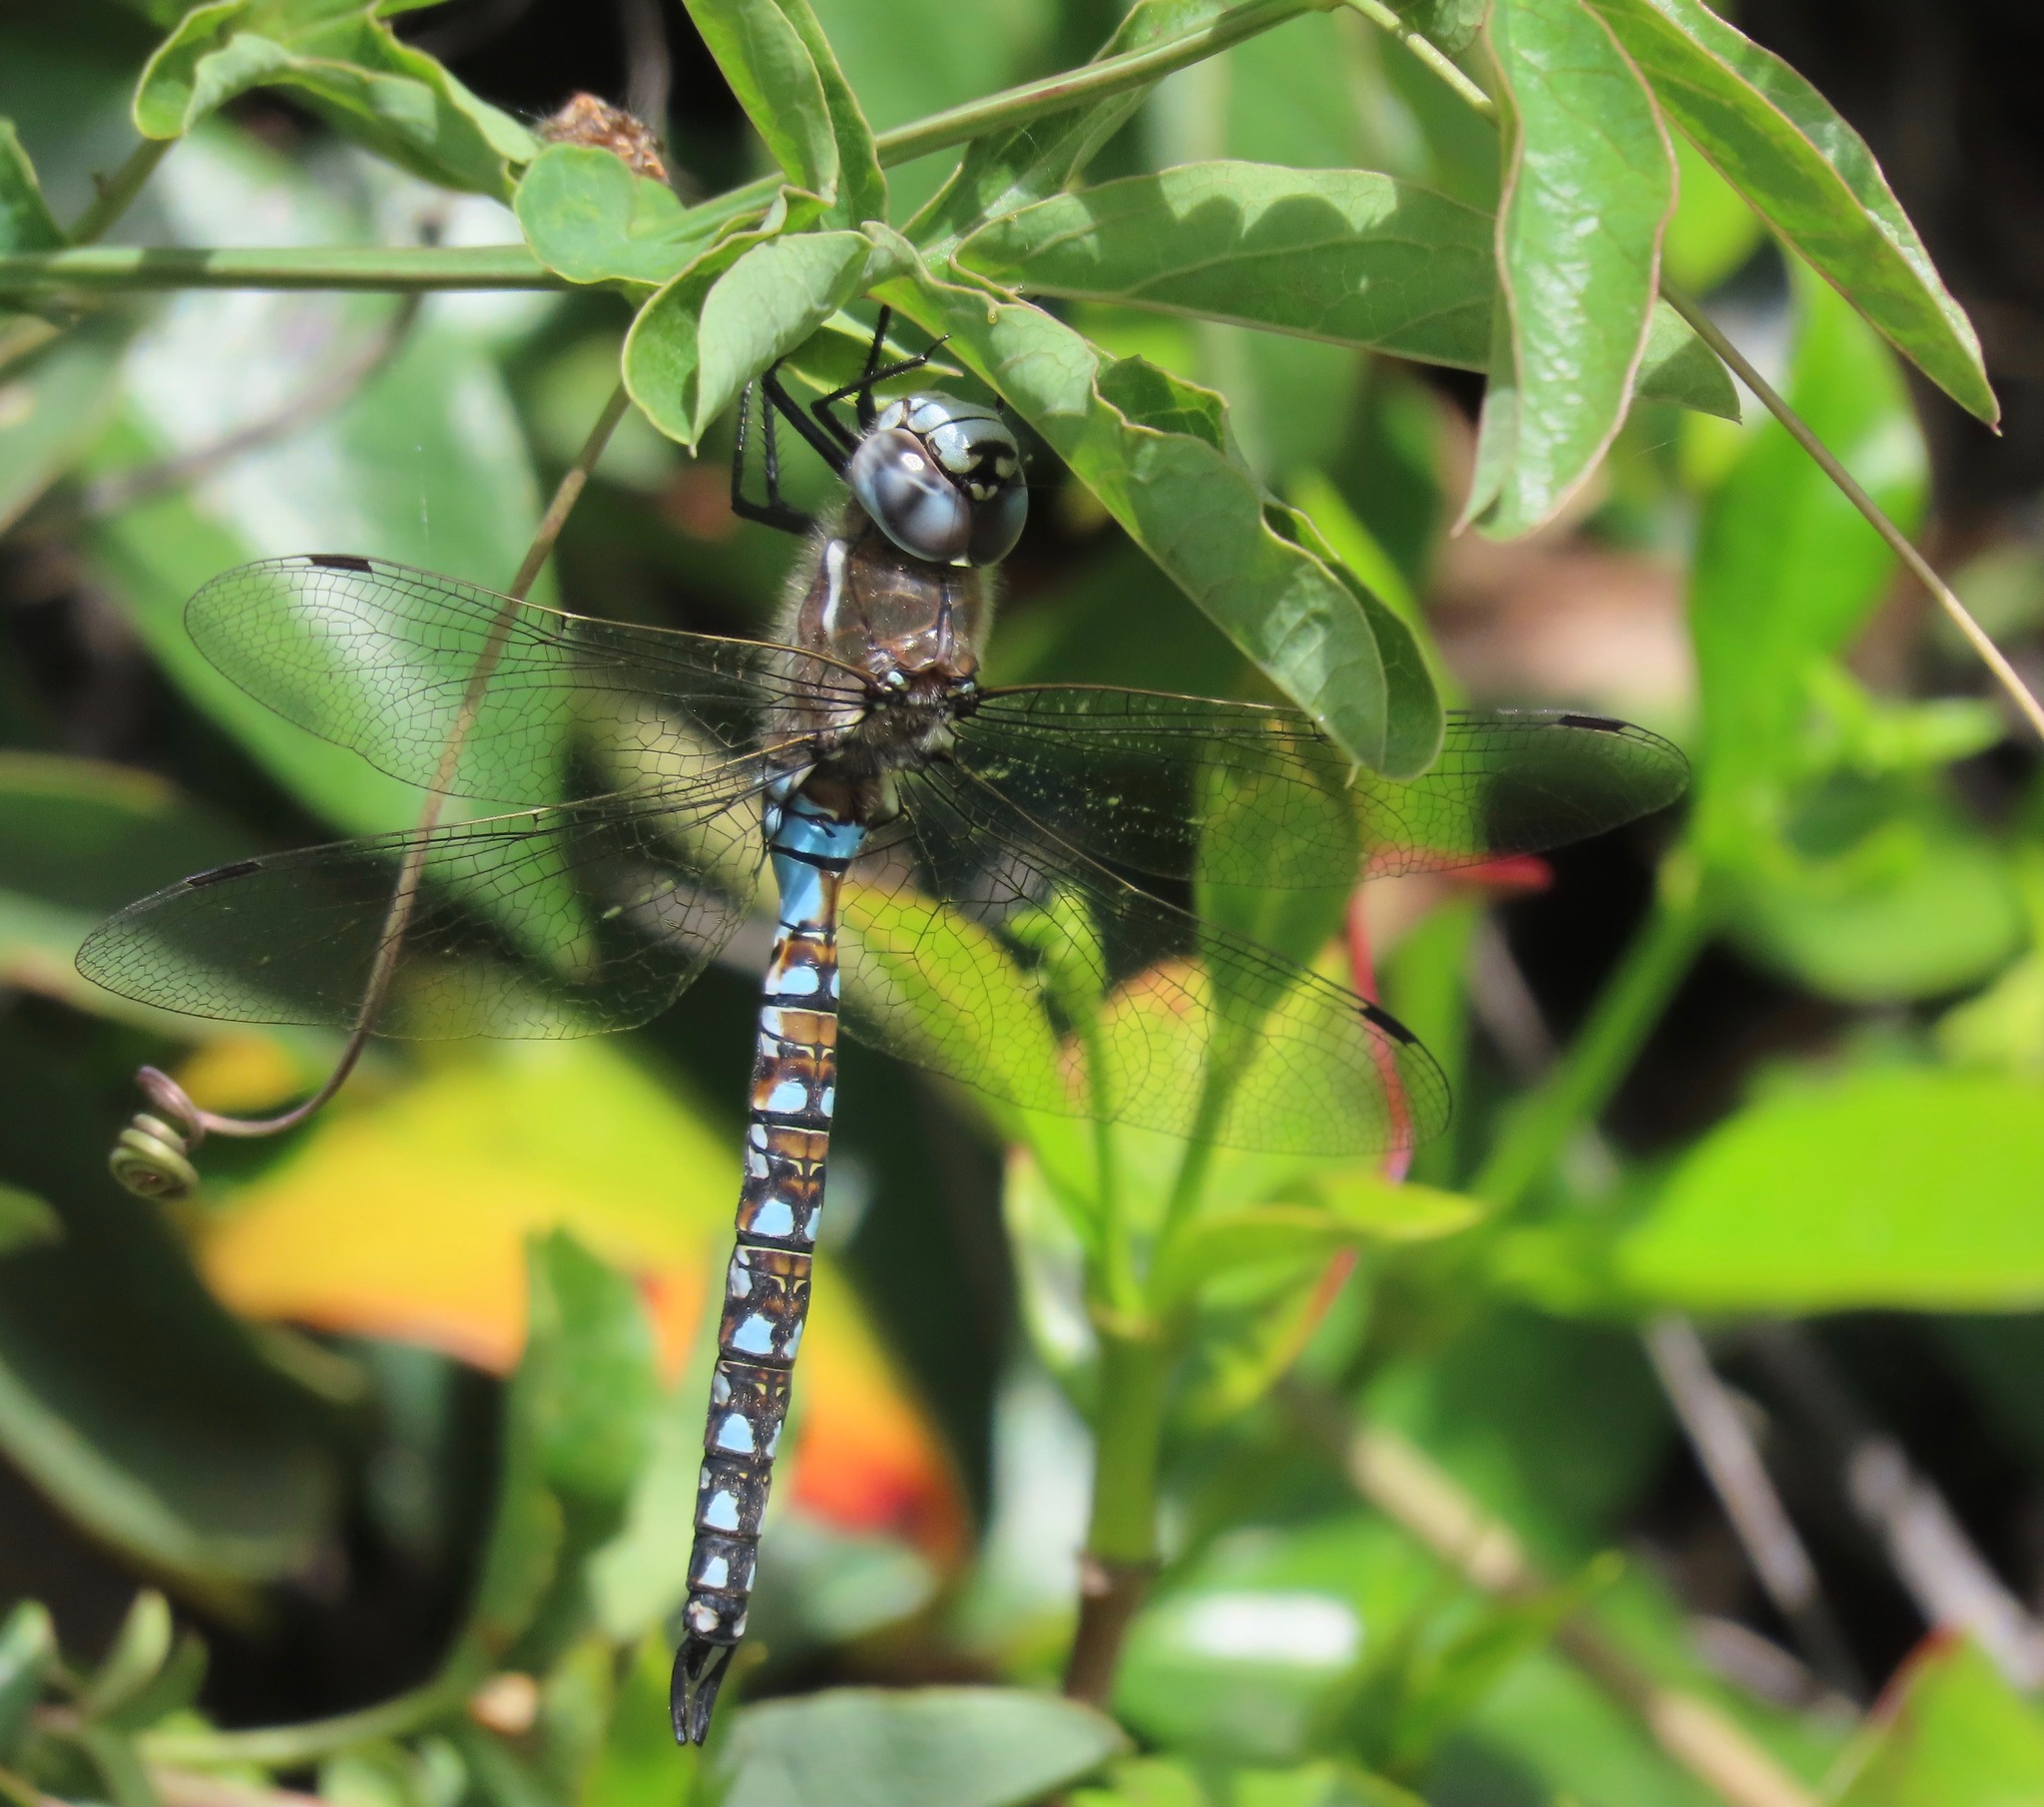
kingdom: Animalia
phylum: Arthropoda
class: Insecta
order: Odonata
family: Aeshnidae
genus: Rhionaeschna
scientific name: Rhionaeschna californica
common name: California darner
